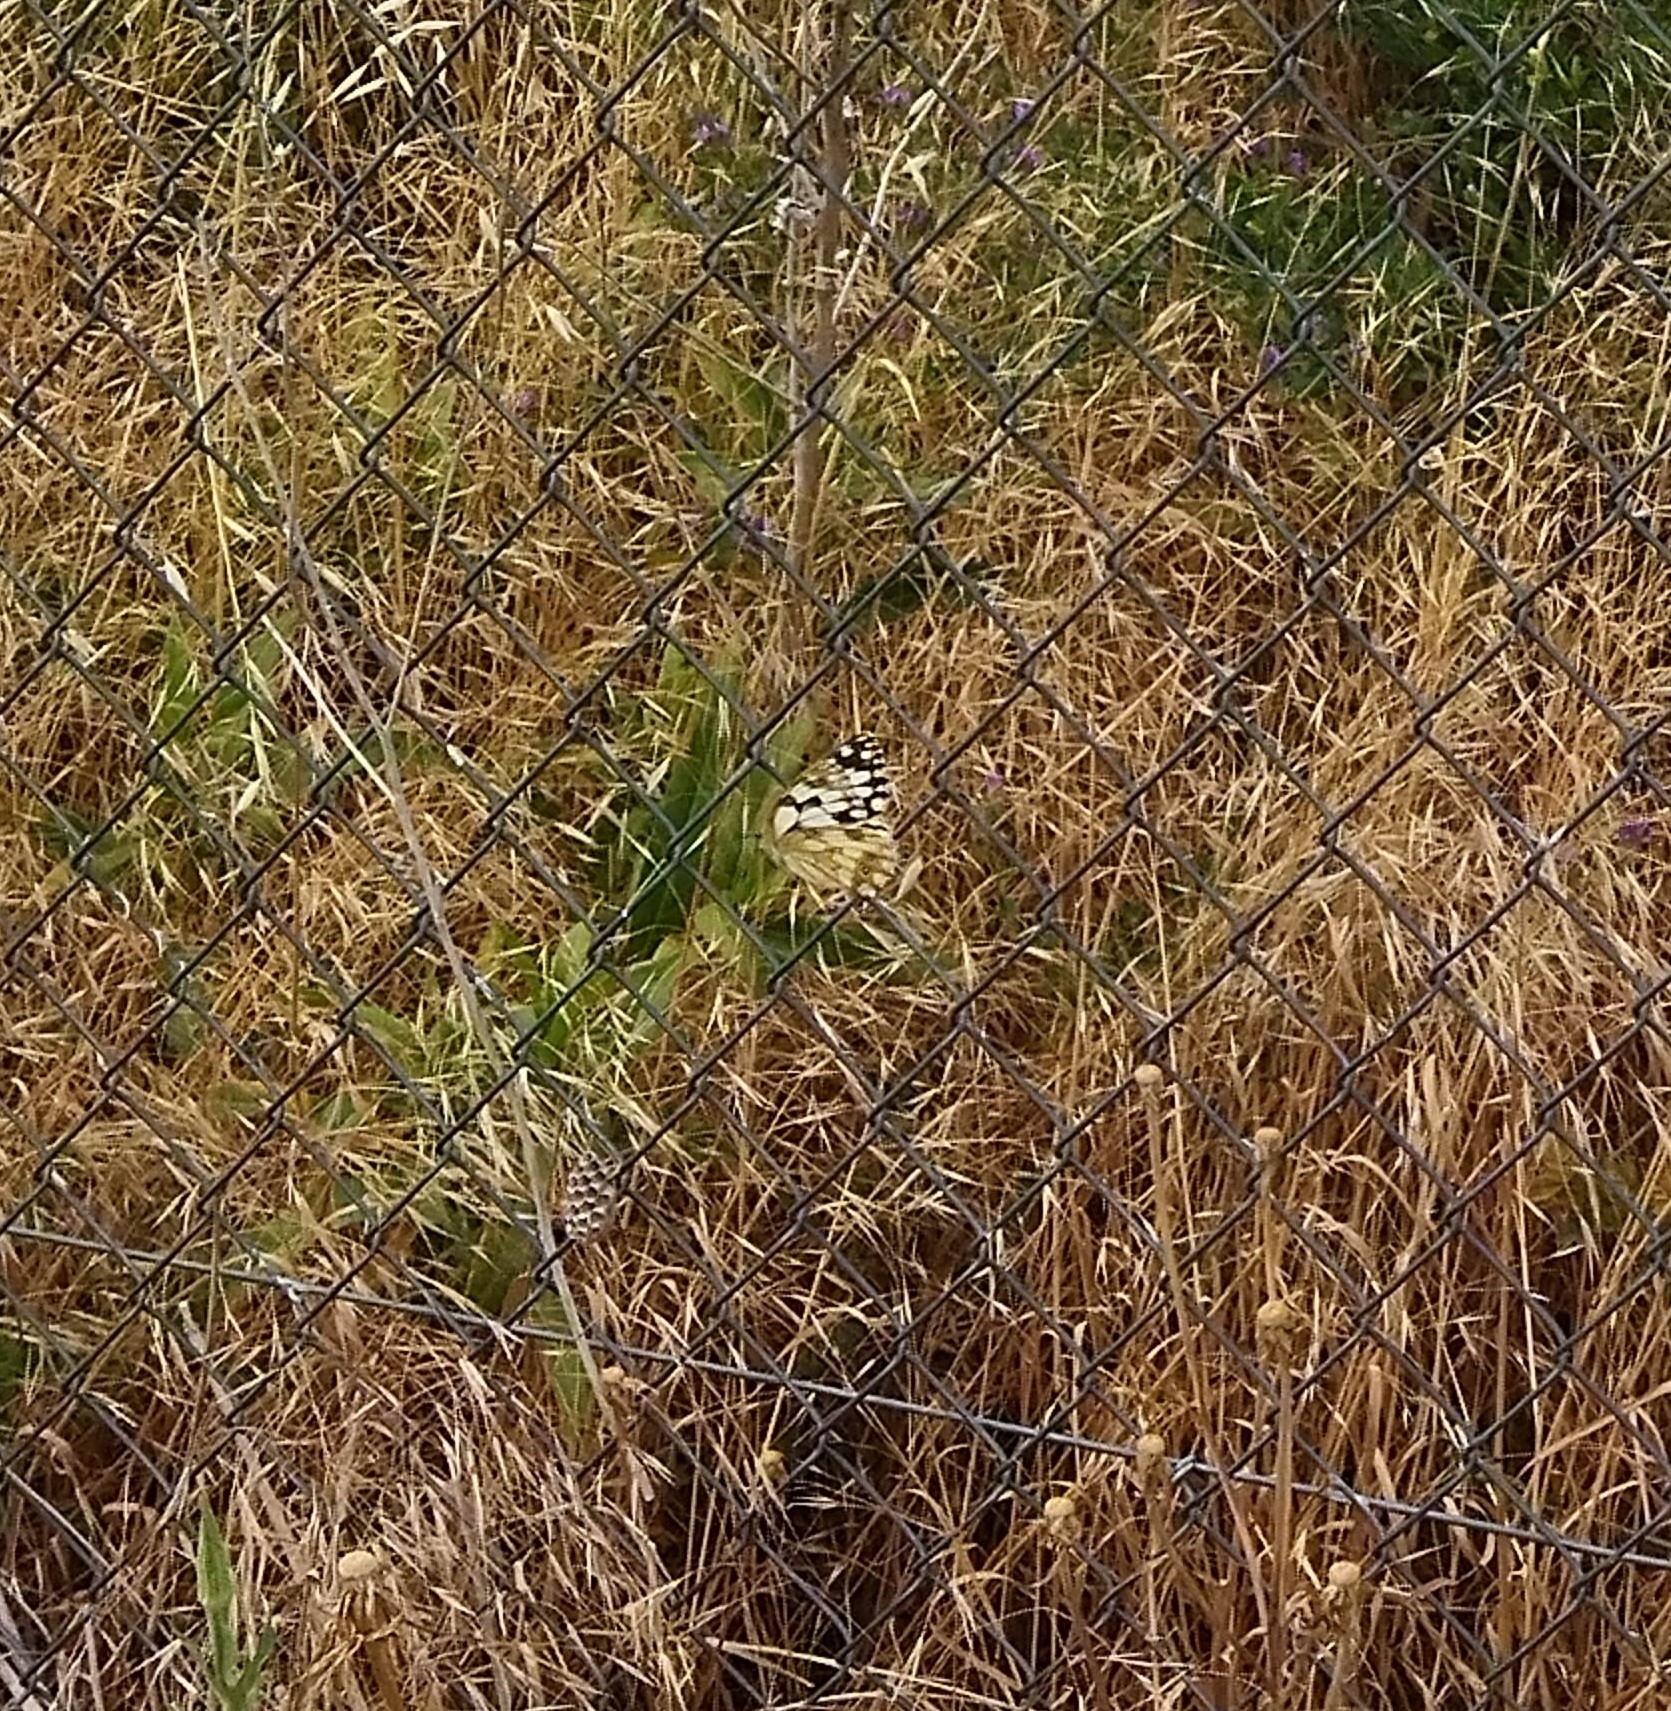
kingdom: Animalia
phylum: Arthropoda
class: Insecta
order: Lepidoptera
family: Nymphalidae
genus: Melanargia
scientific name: Melanargia lachesis
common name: Iberian marbled white
